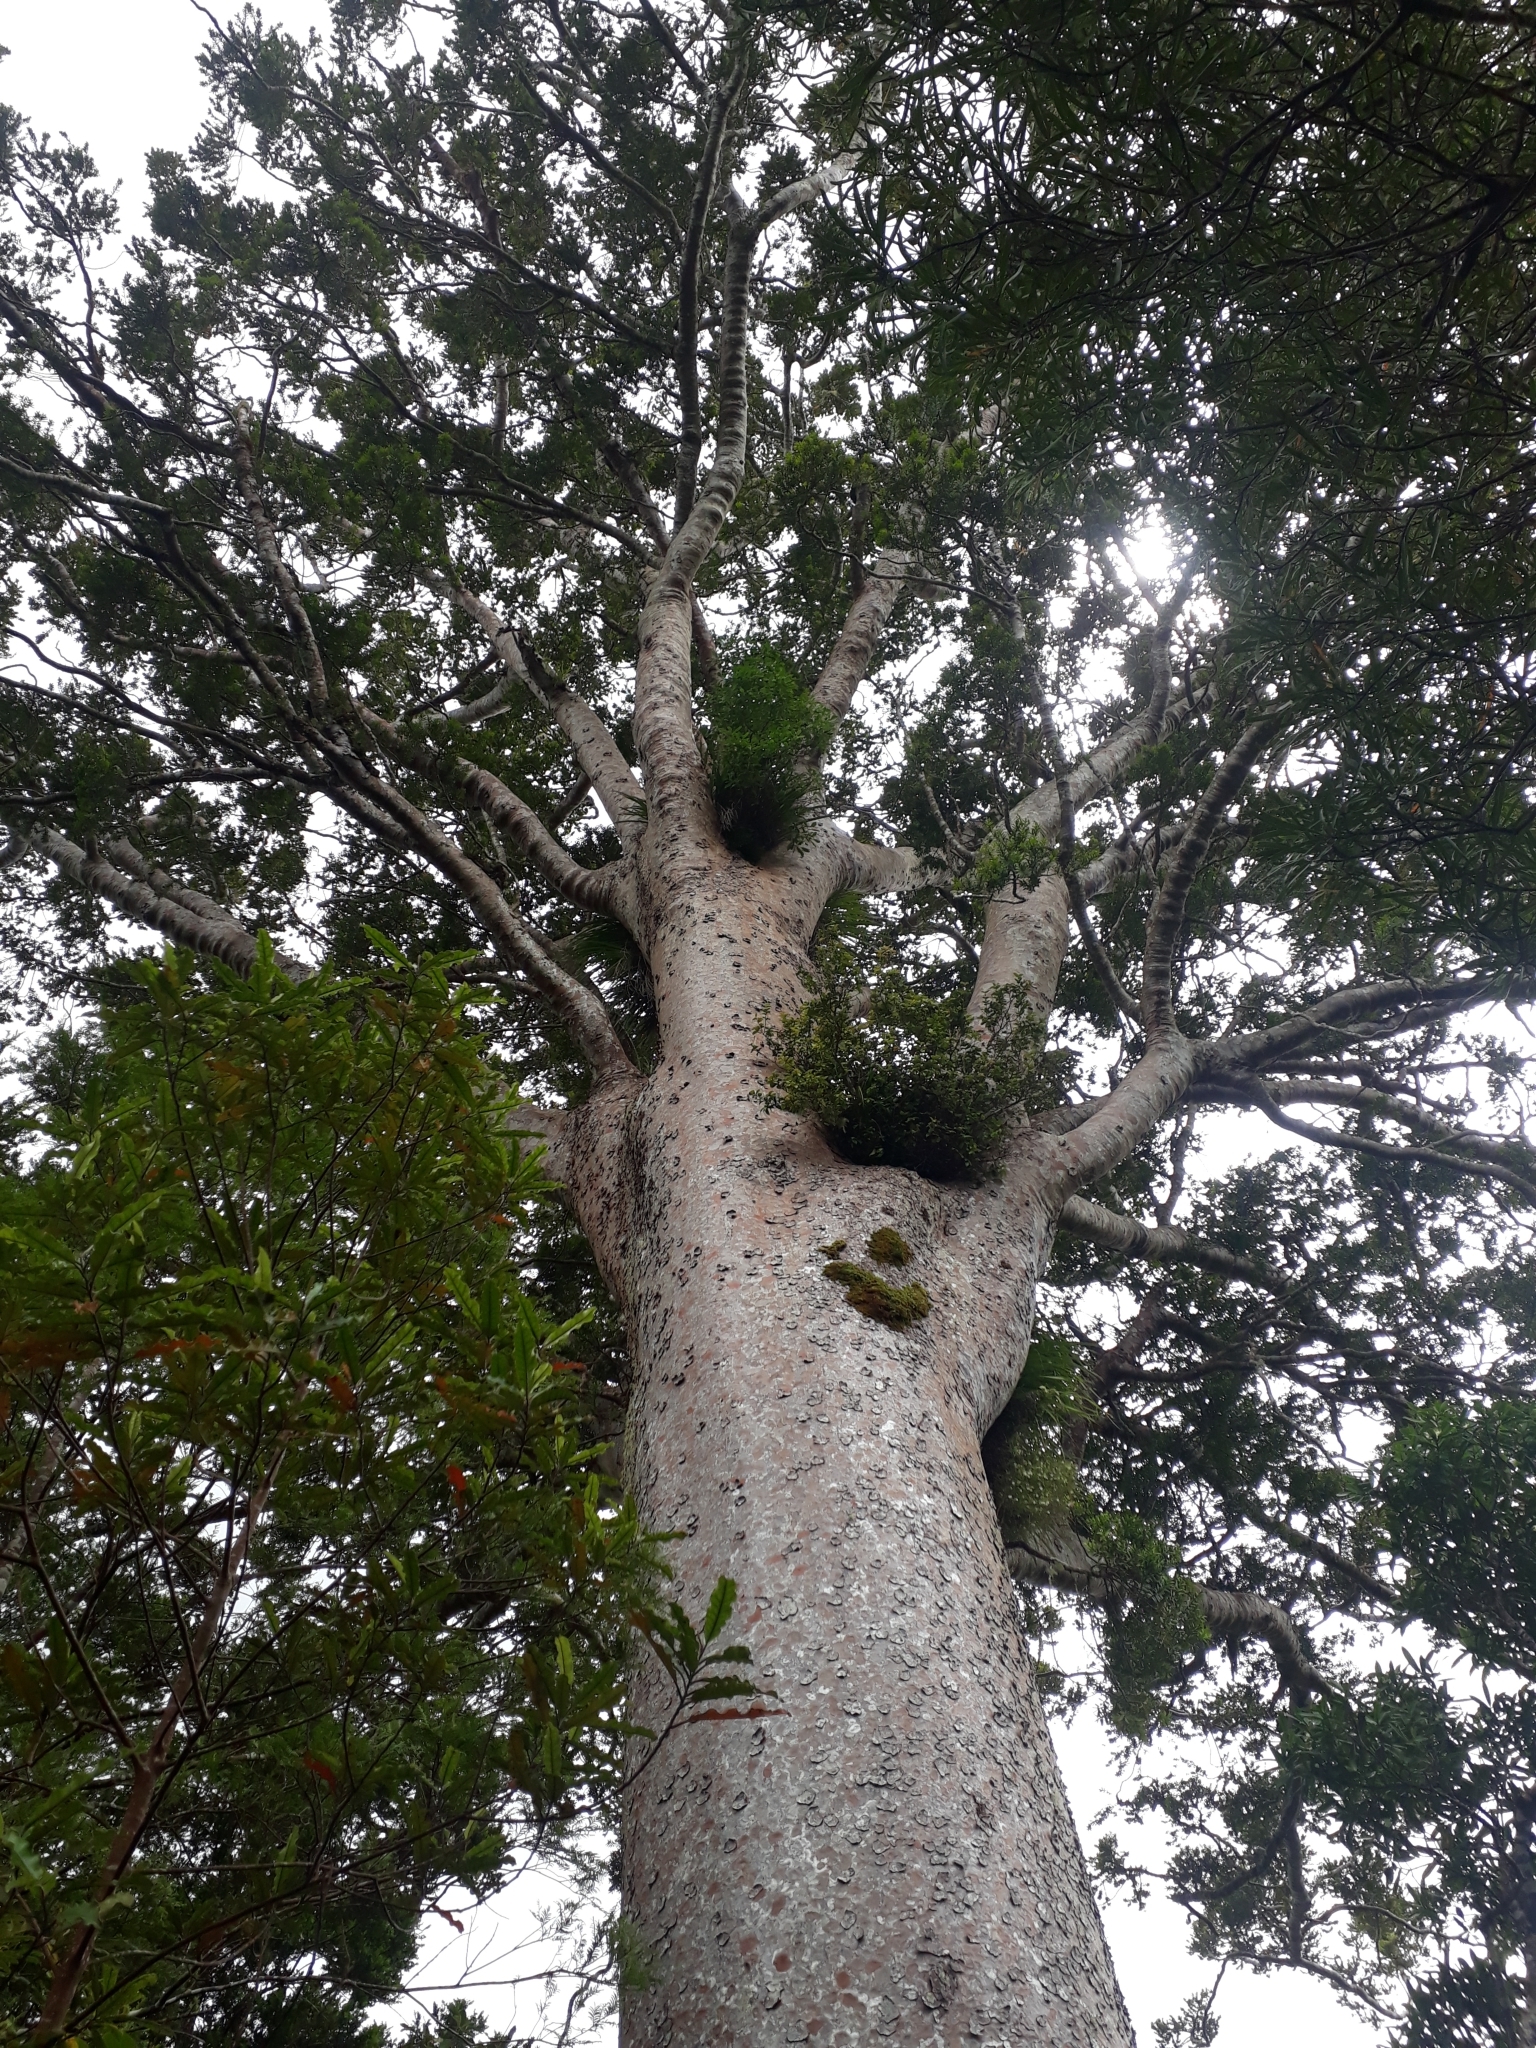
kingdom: Plantae
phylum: Tracheophyta
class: Pinopsida
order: Pinales
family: Araucariaceae
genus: Agathis
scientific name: Agathis australis
